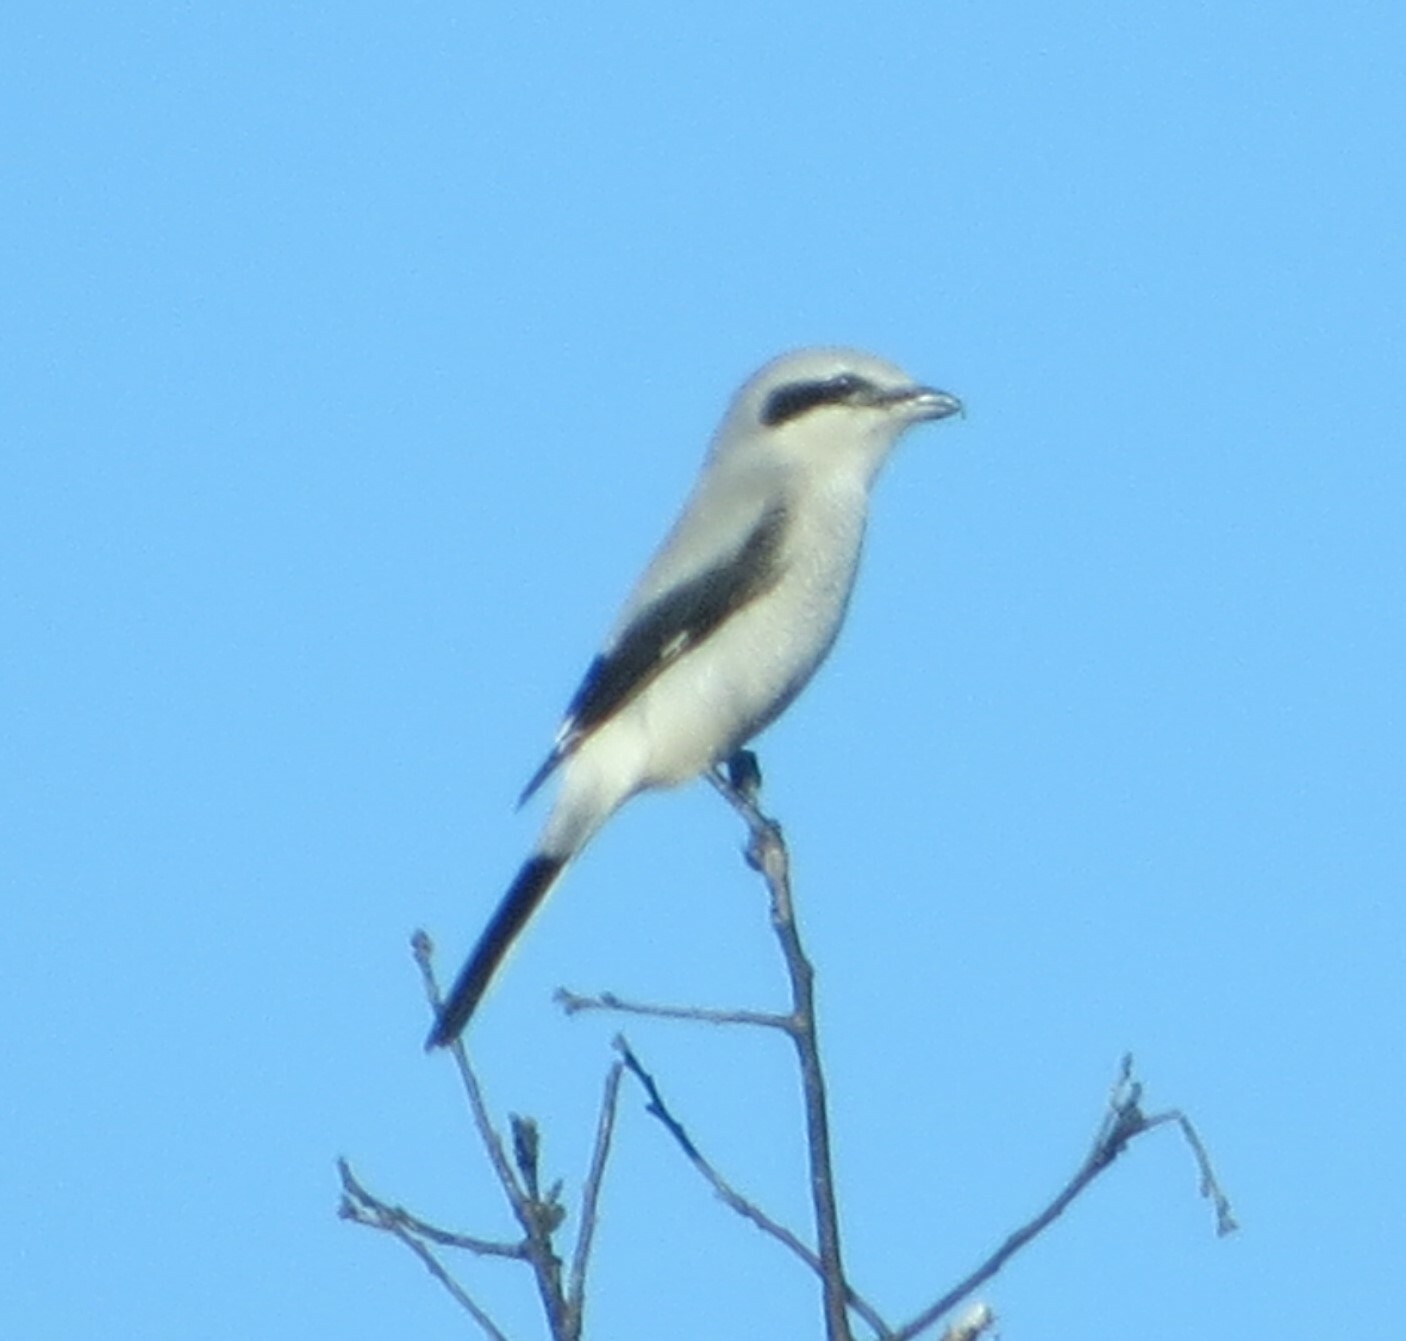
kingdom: Animalia
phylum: Chordata
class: Aves
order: Passeriformes
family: Laniidae
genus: Lanius
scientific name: Lanius borealis
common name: Northern shrike
